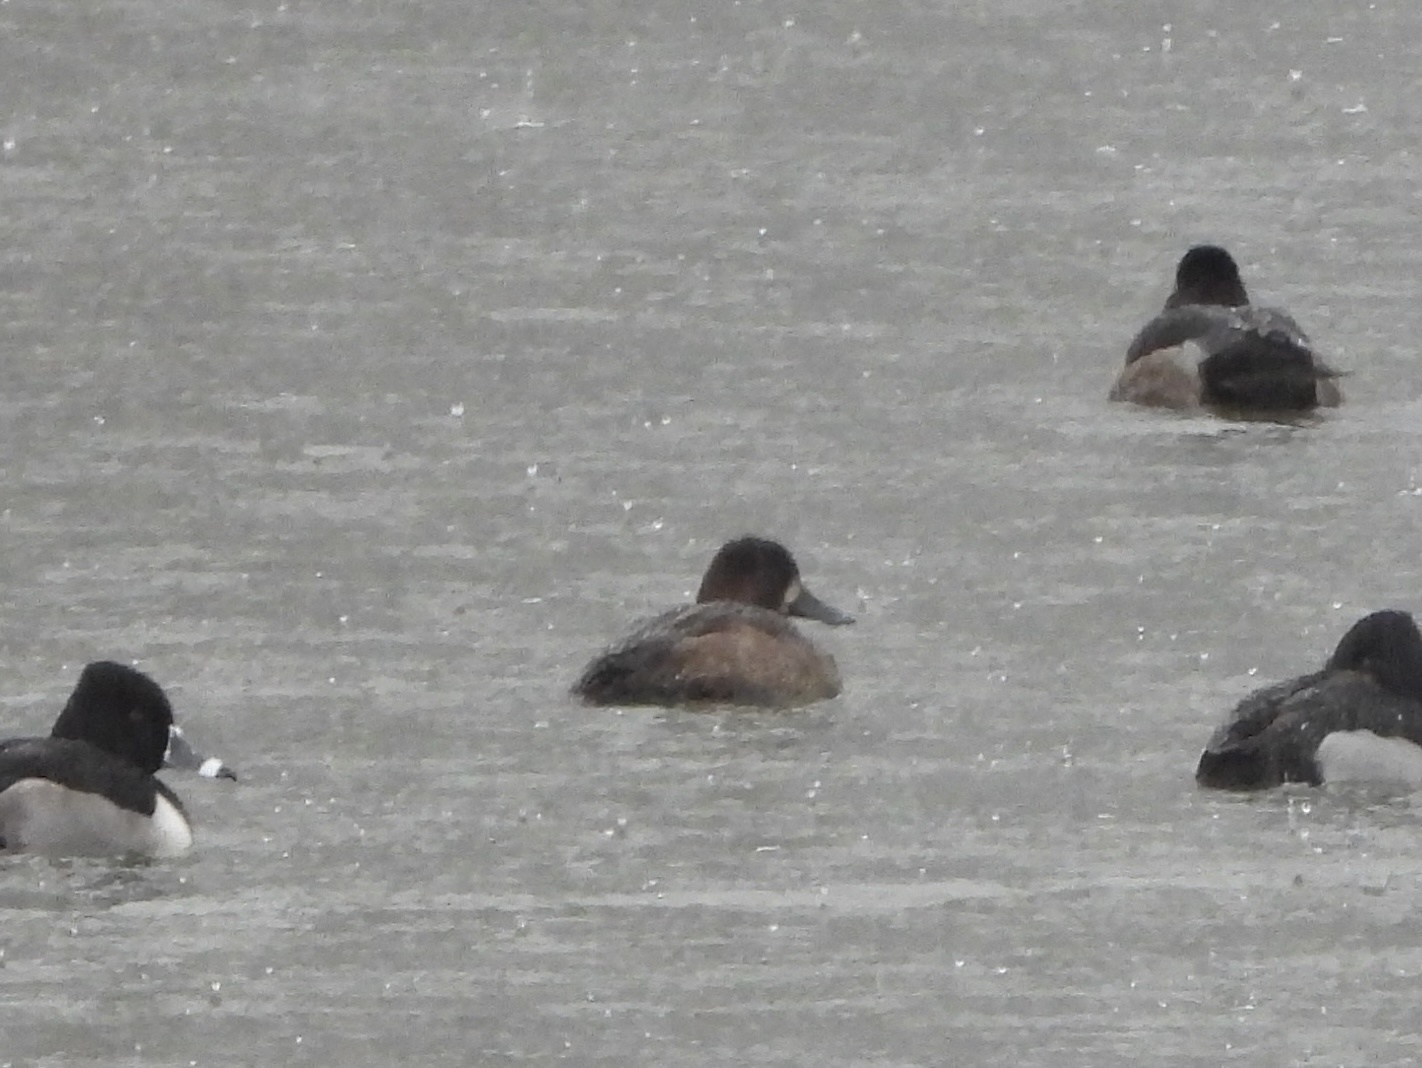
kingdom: Animalia
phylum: Chordata
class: Aves
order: Anseriformes
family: Anatidae
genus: Aythya
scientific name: Aythya marila
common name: Greater scaup
